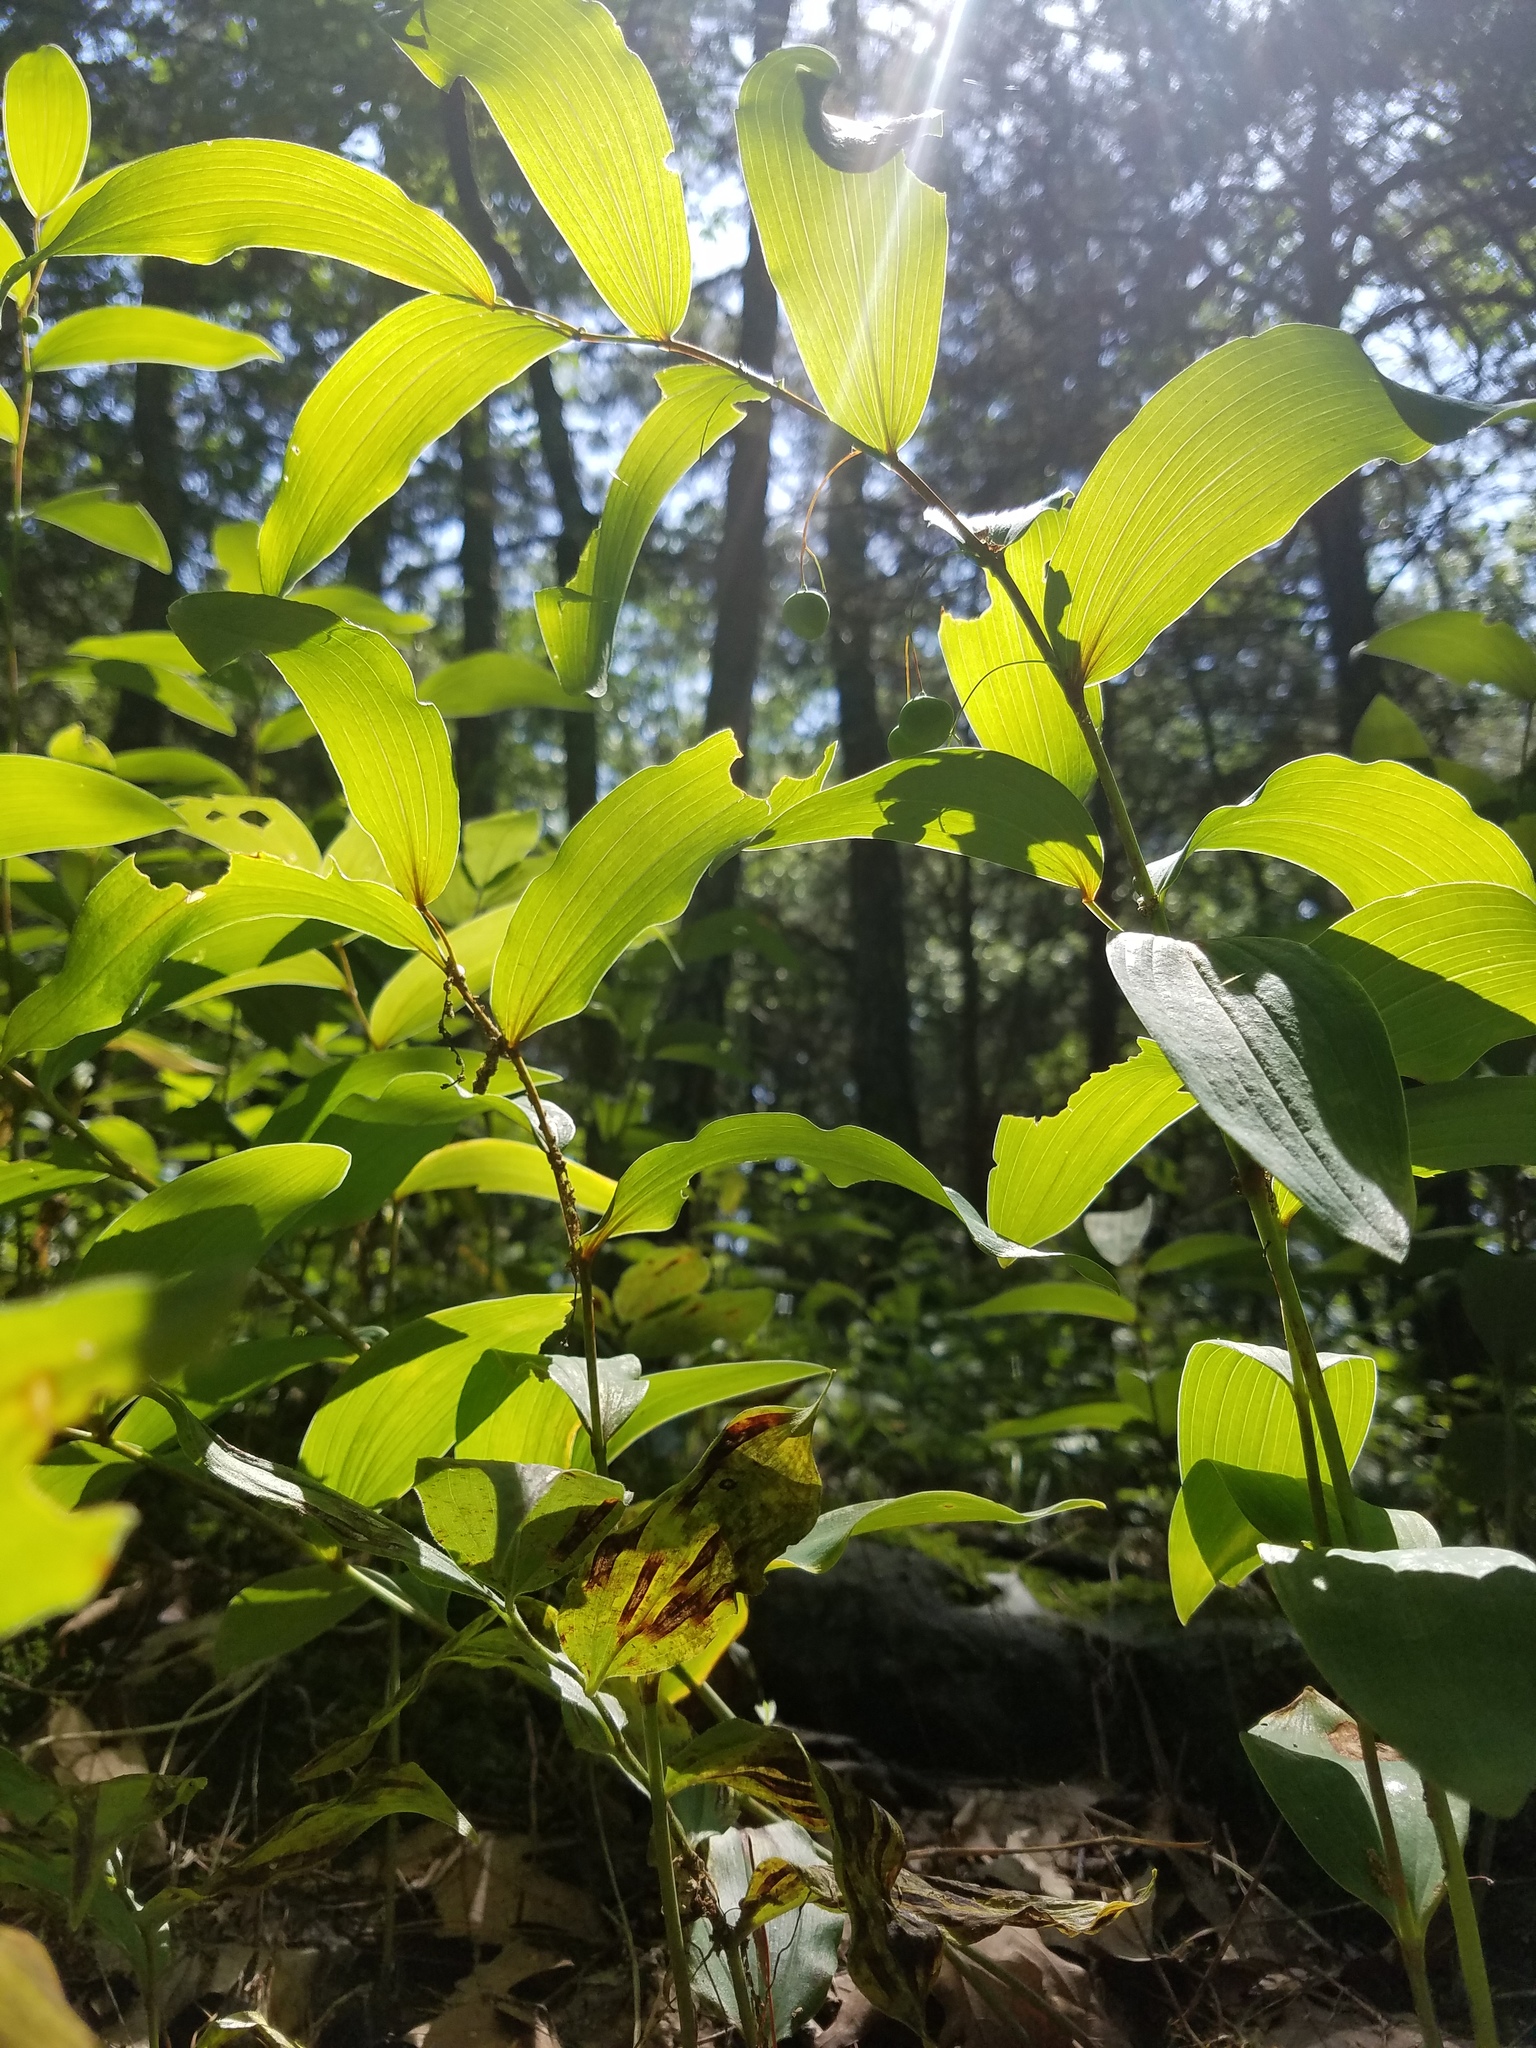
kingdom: Plantae
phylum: Tracheophyta
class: Liliopsida
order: Asparagales
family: Asparagaceae
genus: Polygonatum
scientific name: Polygonatum biflorum
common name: American solomon's-seal
